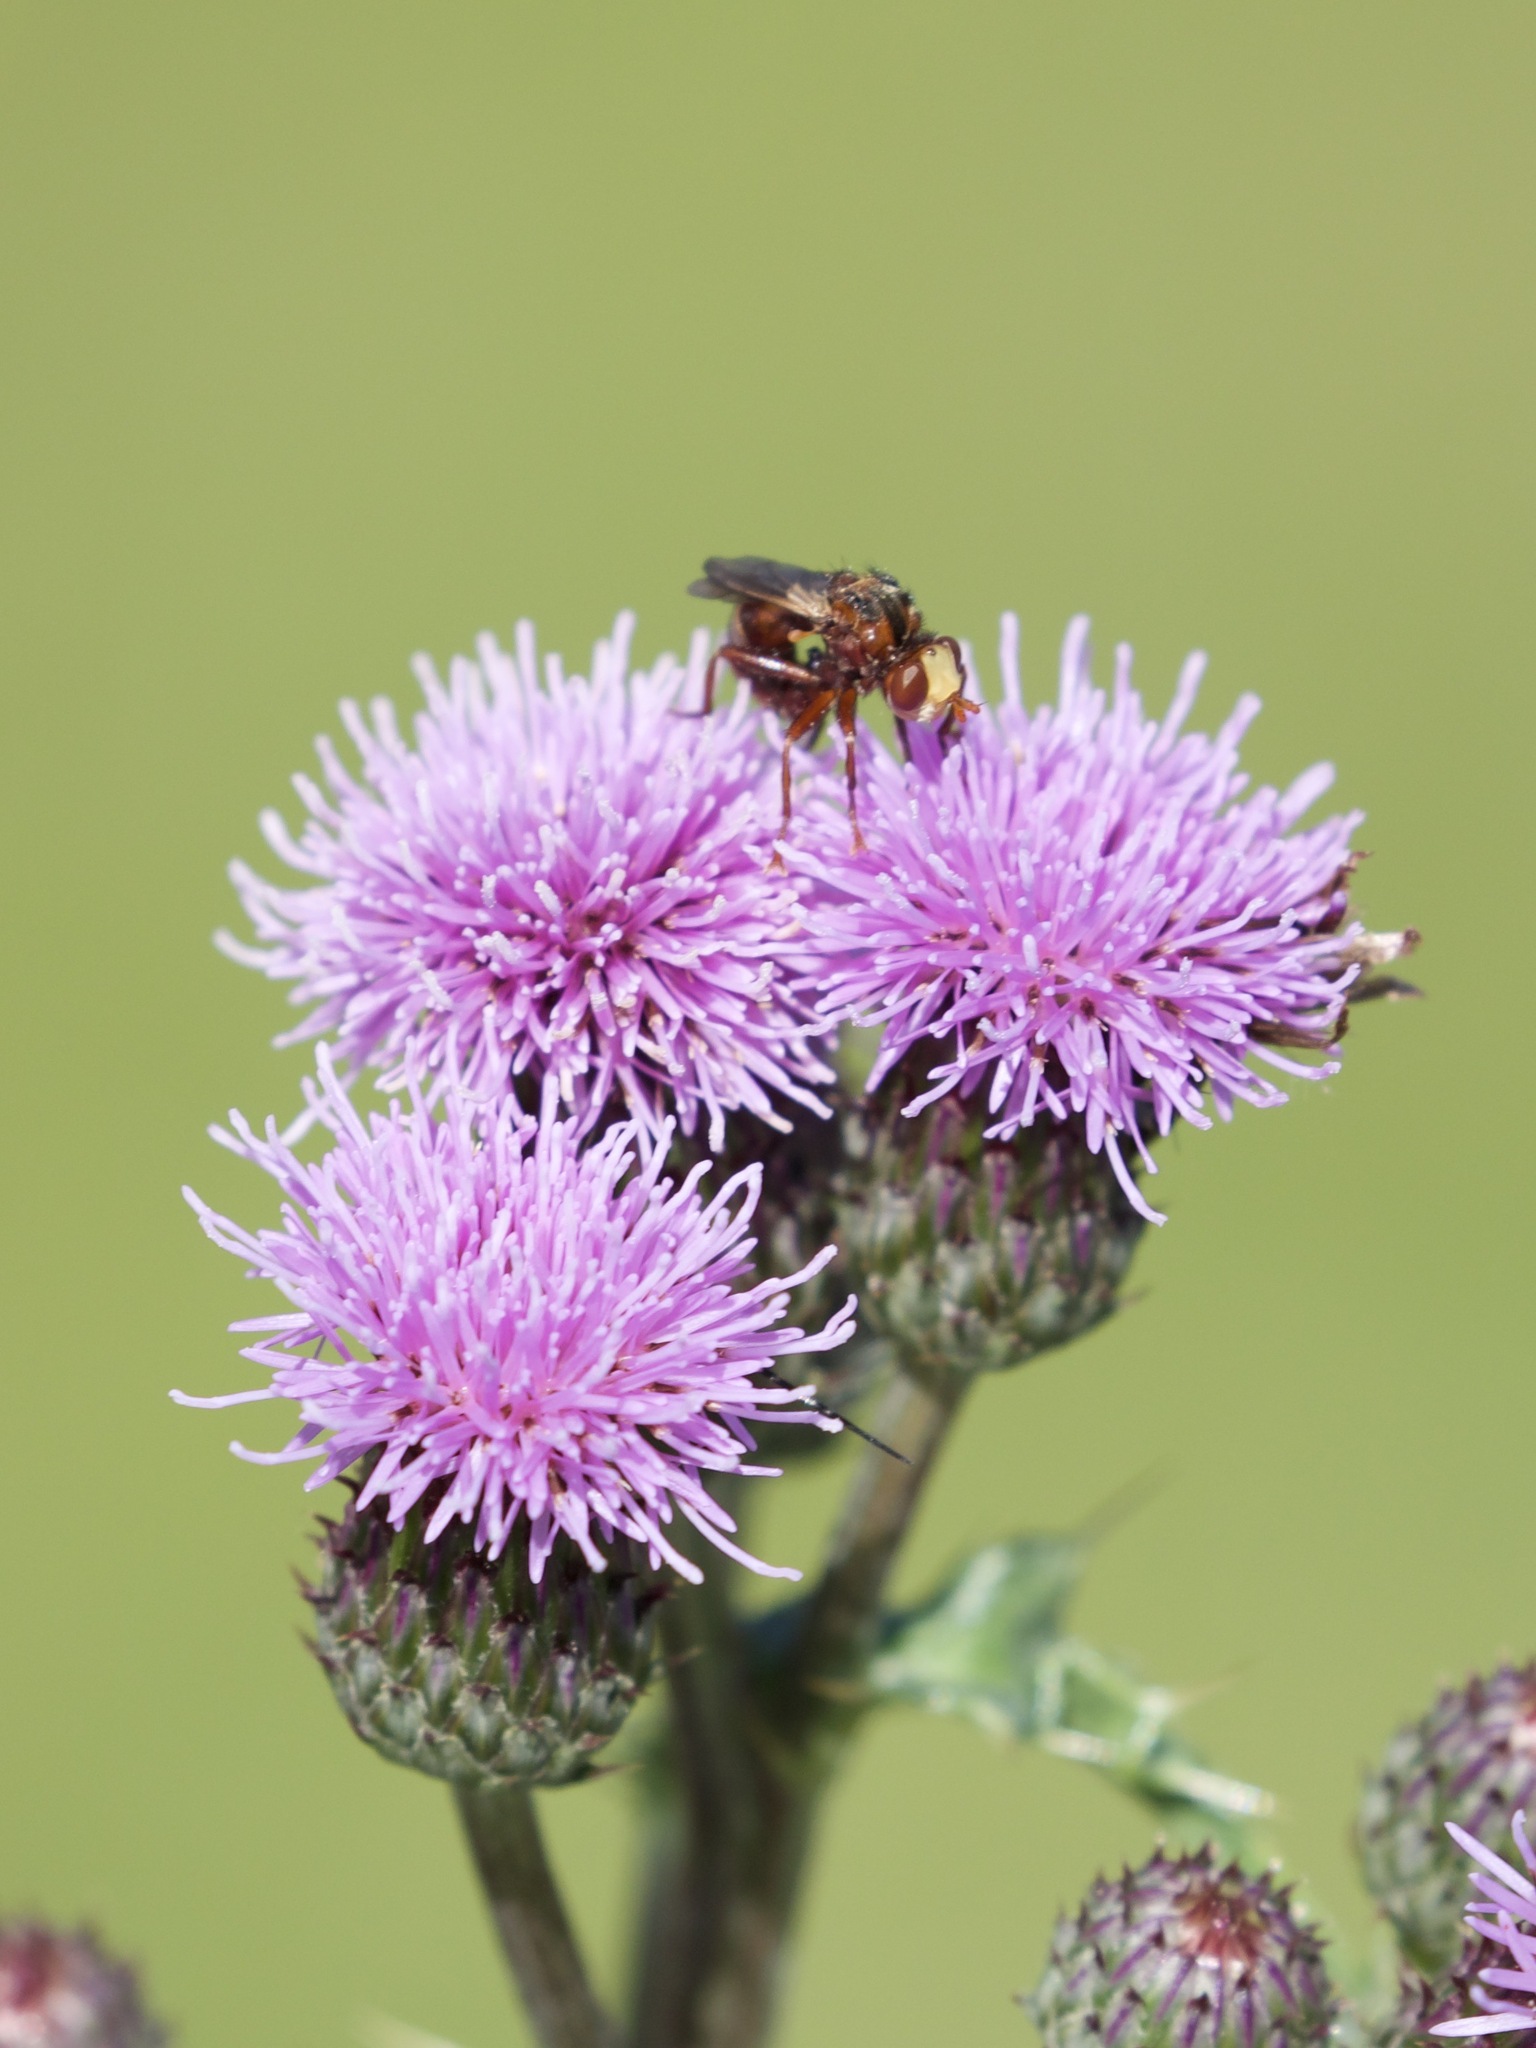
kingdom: Animalia
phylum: Arthropoda
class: Insecta
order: Diptera
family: Conopidae
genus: Sicus
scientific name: Sicus ferrugineus
